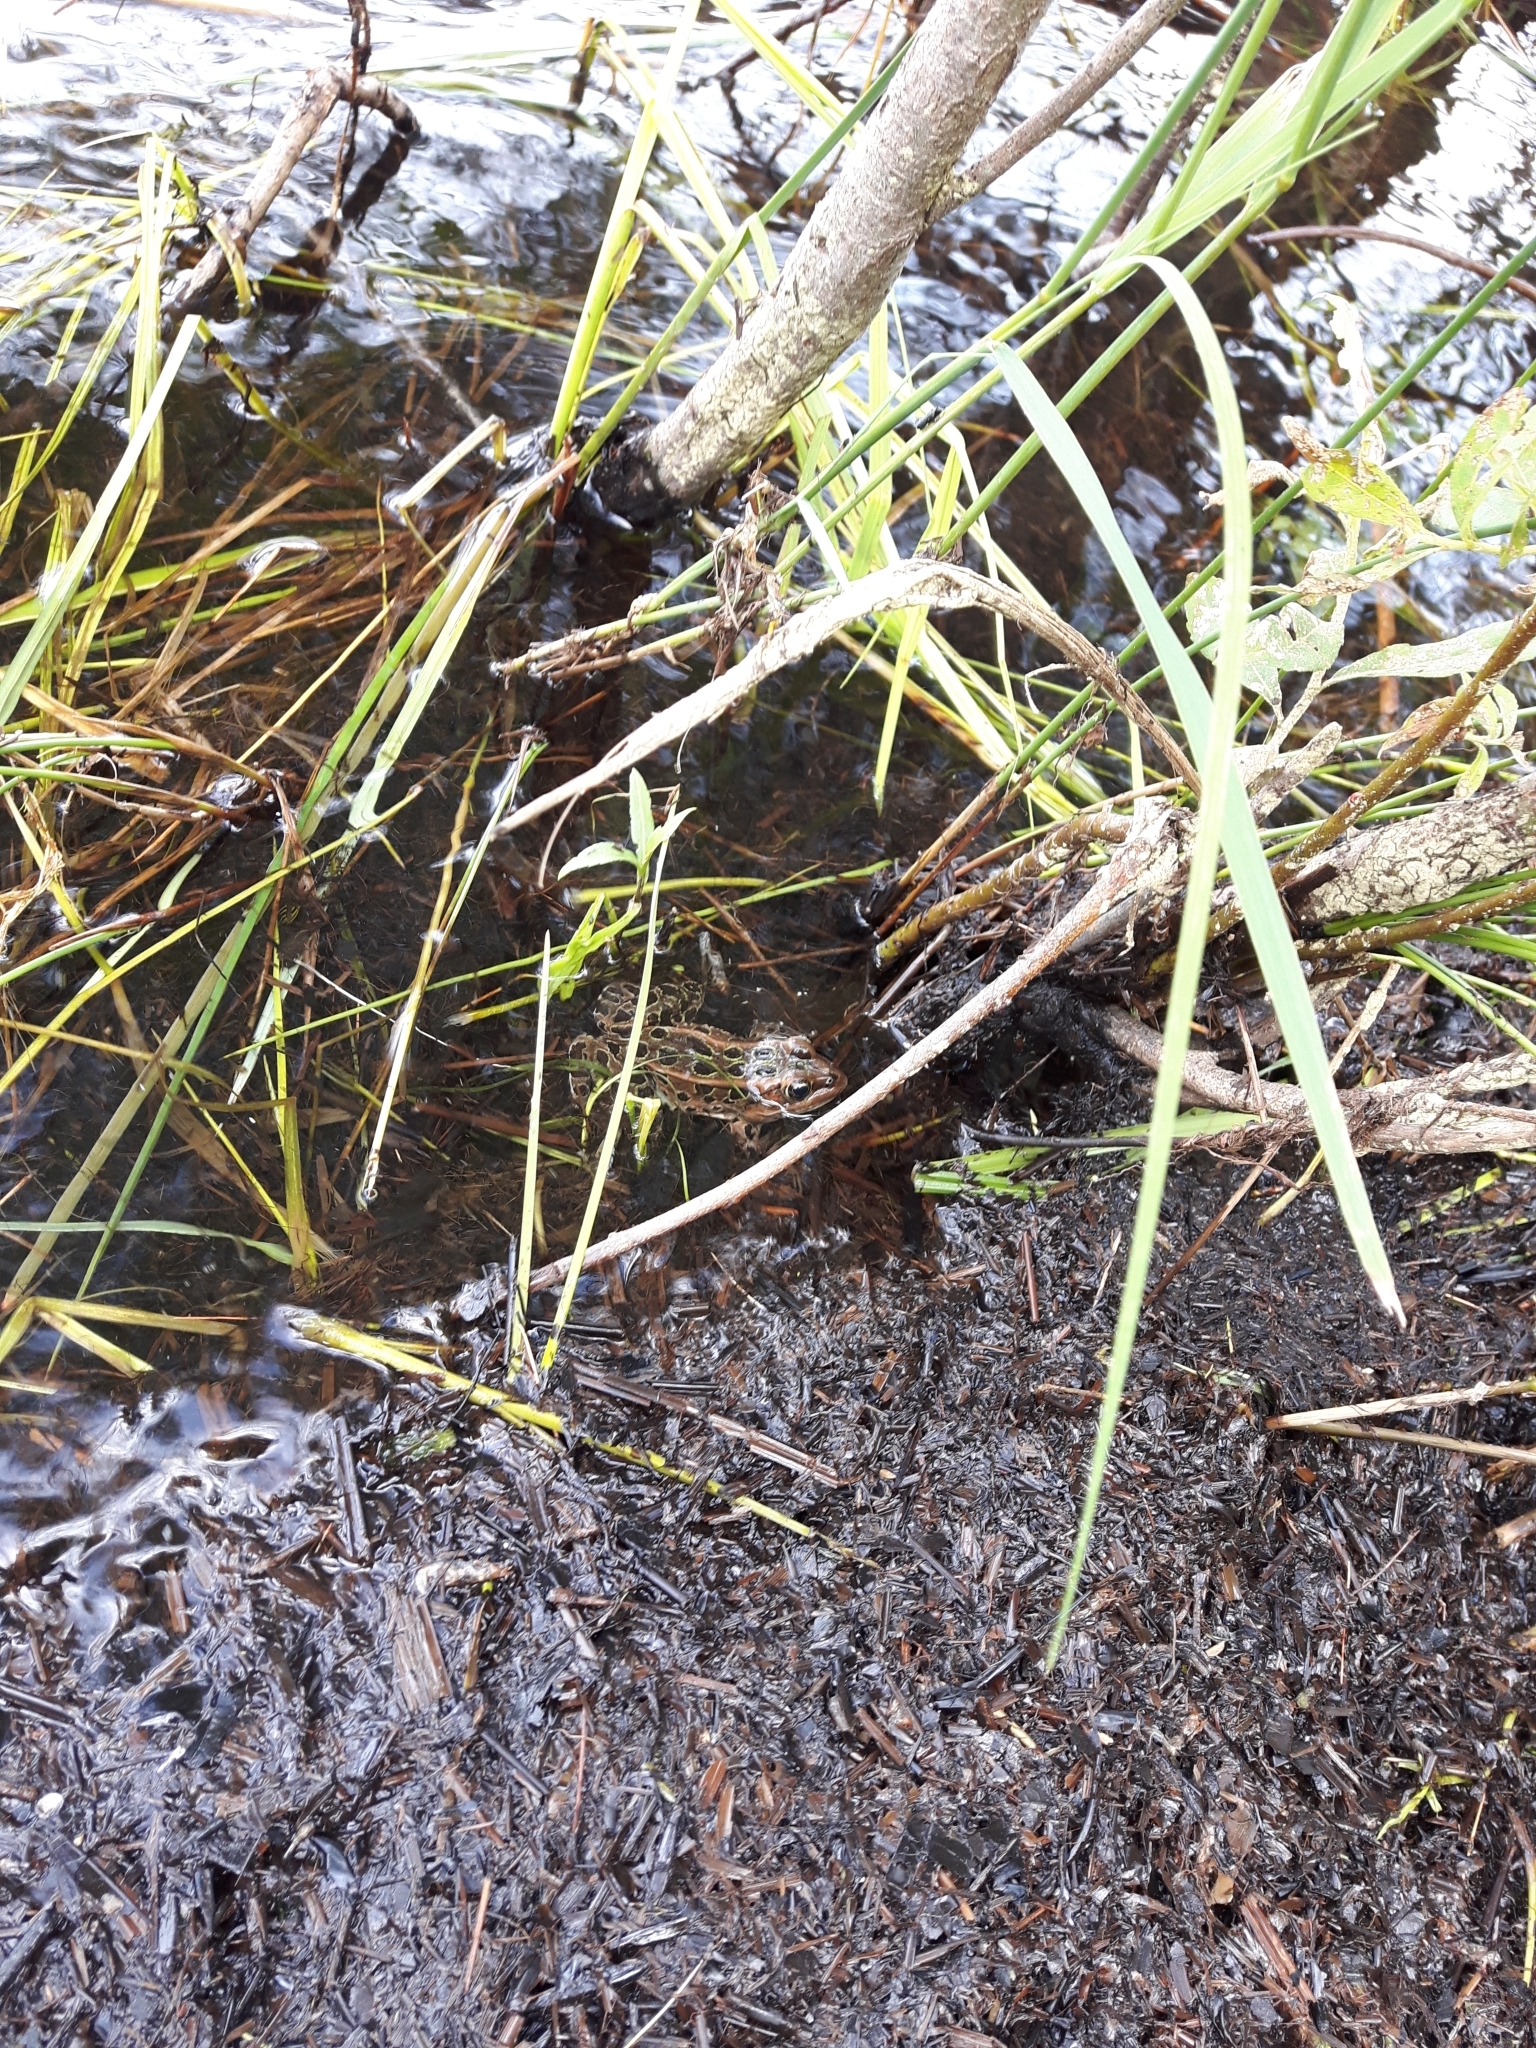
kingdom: Animalia
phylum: Chordata
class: Amphibia
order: Anura
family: Ranidae
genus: Lithobates
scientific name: Lithobates pipiens
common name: Northern leopard frog
